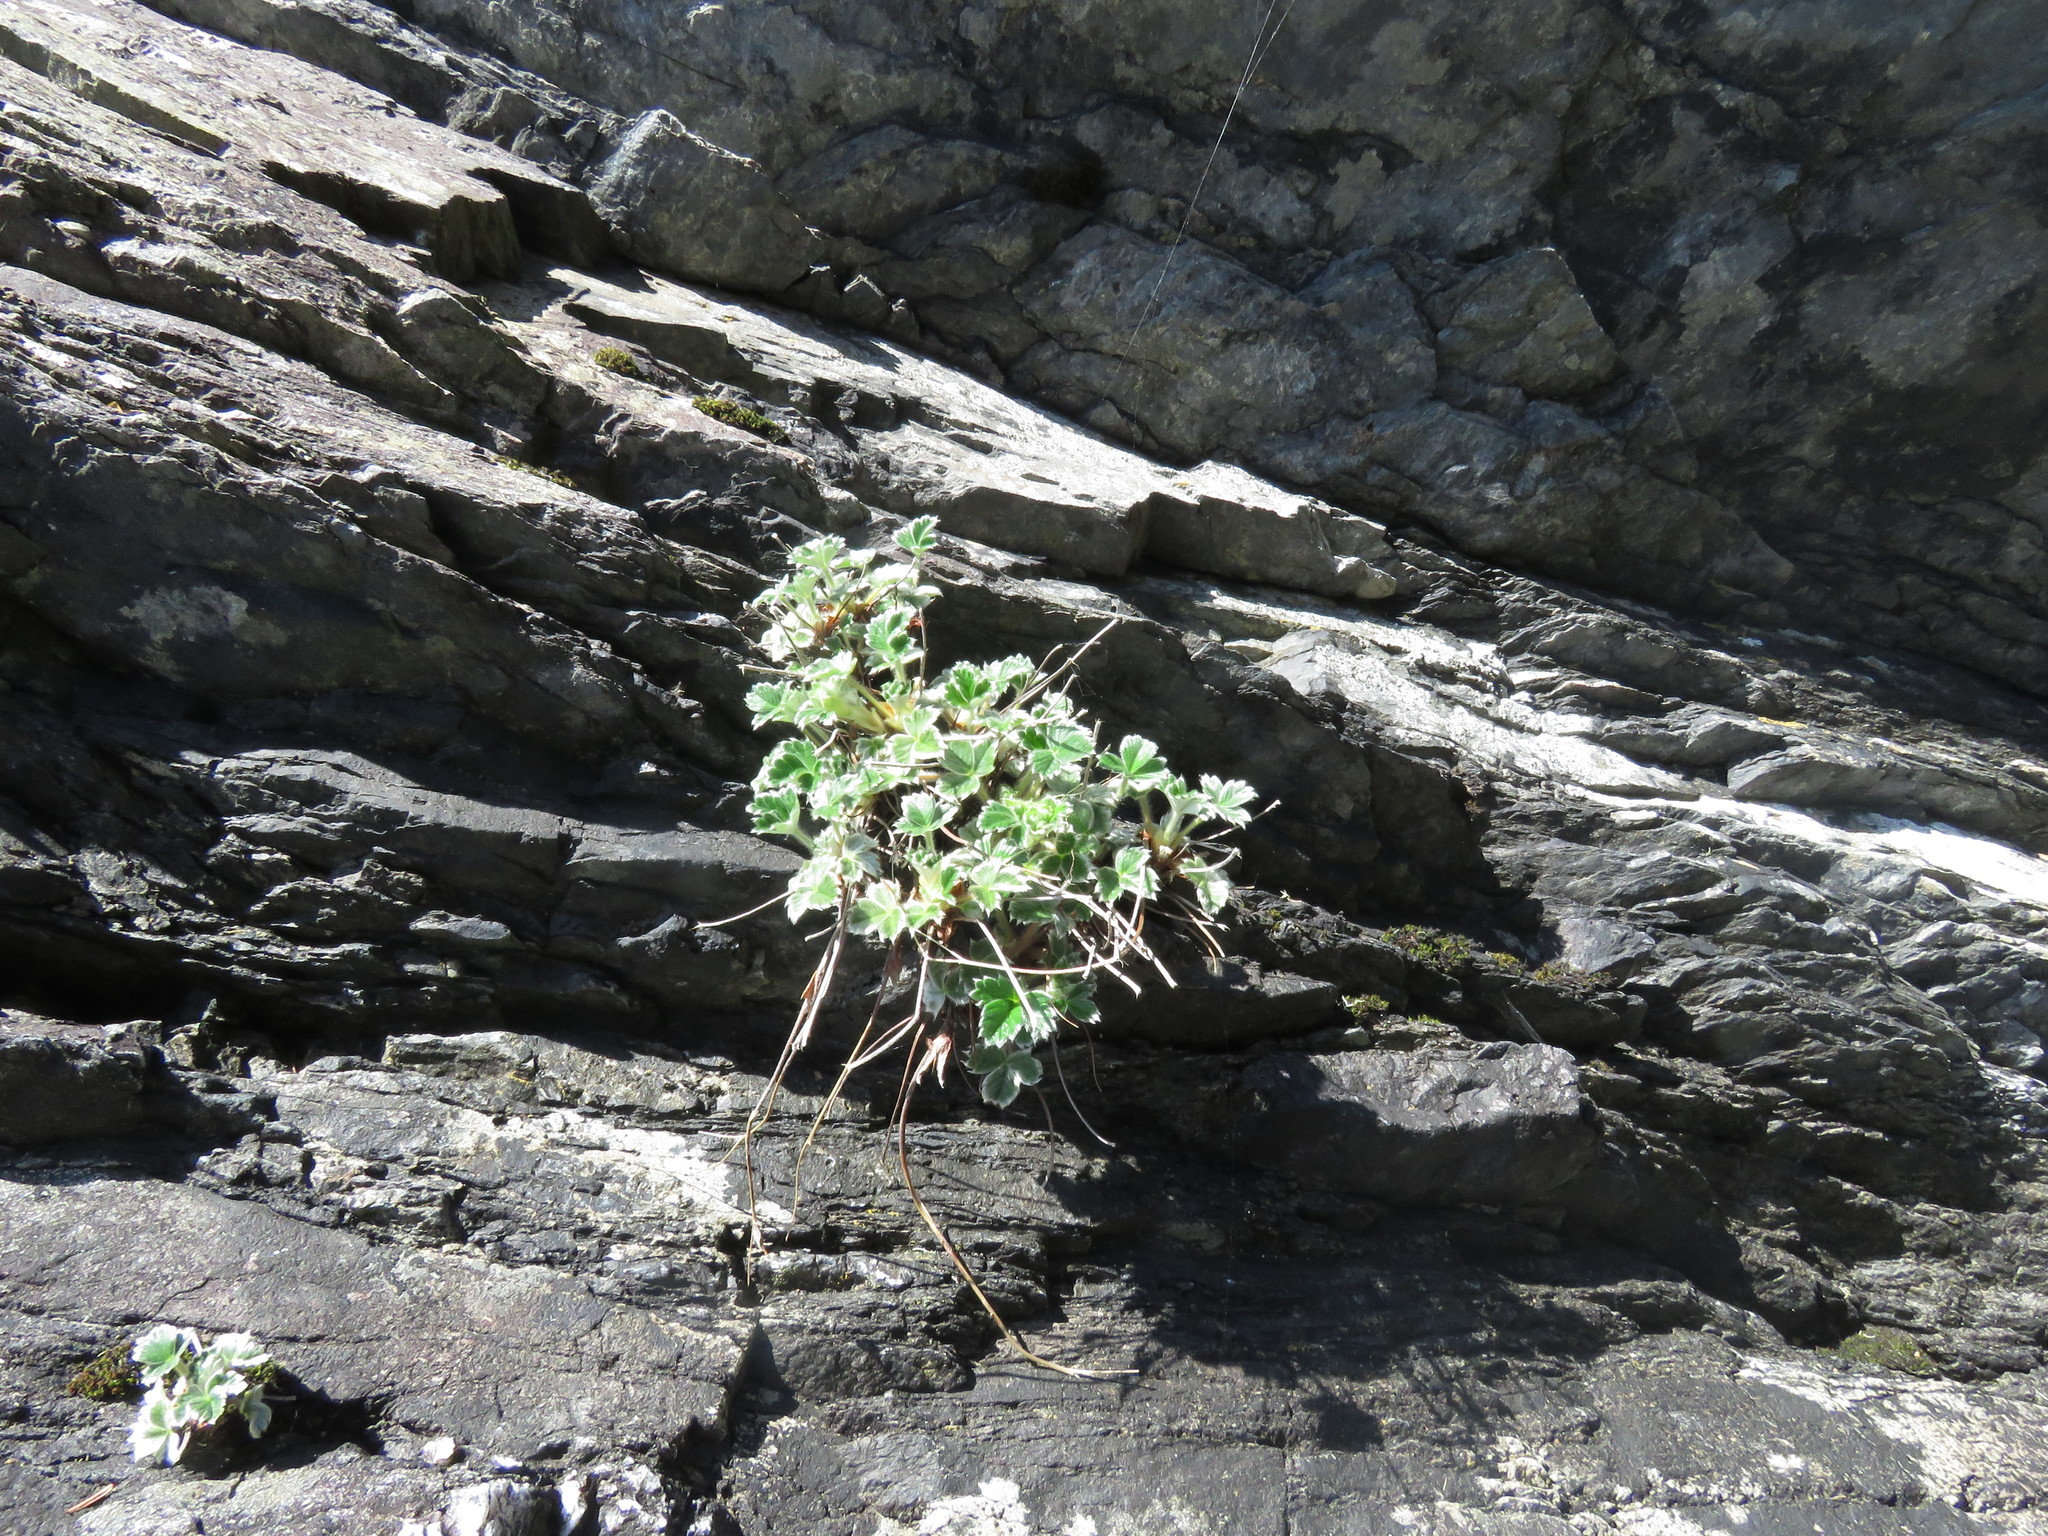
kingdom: Plantae
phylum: Tracheophyta
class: Magnoliopsida
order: Rosales
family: Rosaceae
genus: Potentilla
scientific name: Potentilla villosa
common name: Northern cinquefoil
